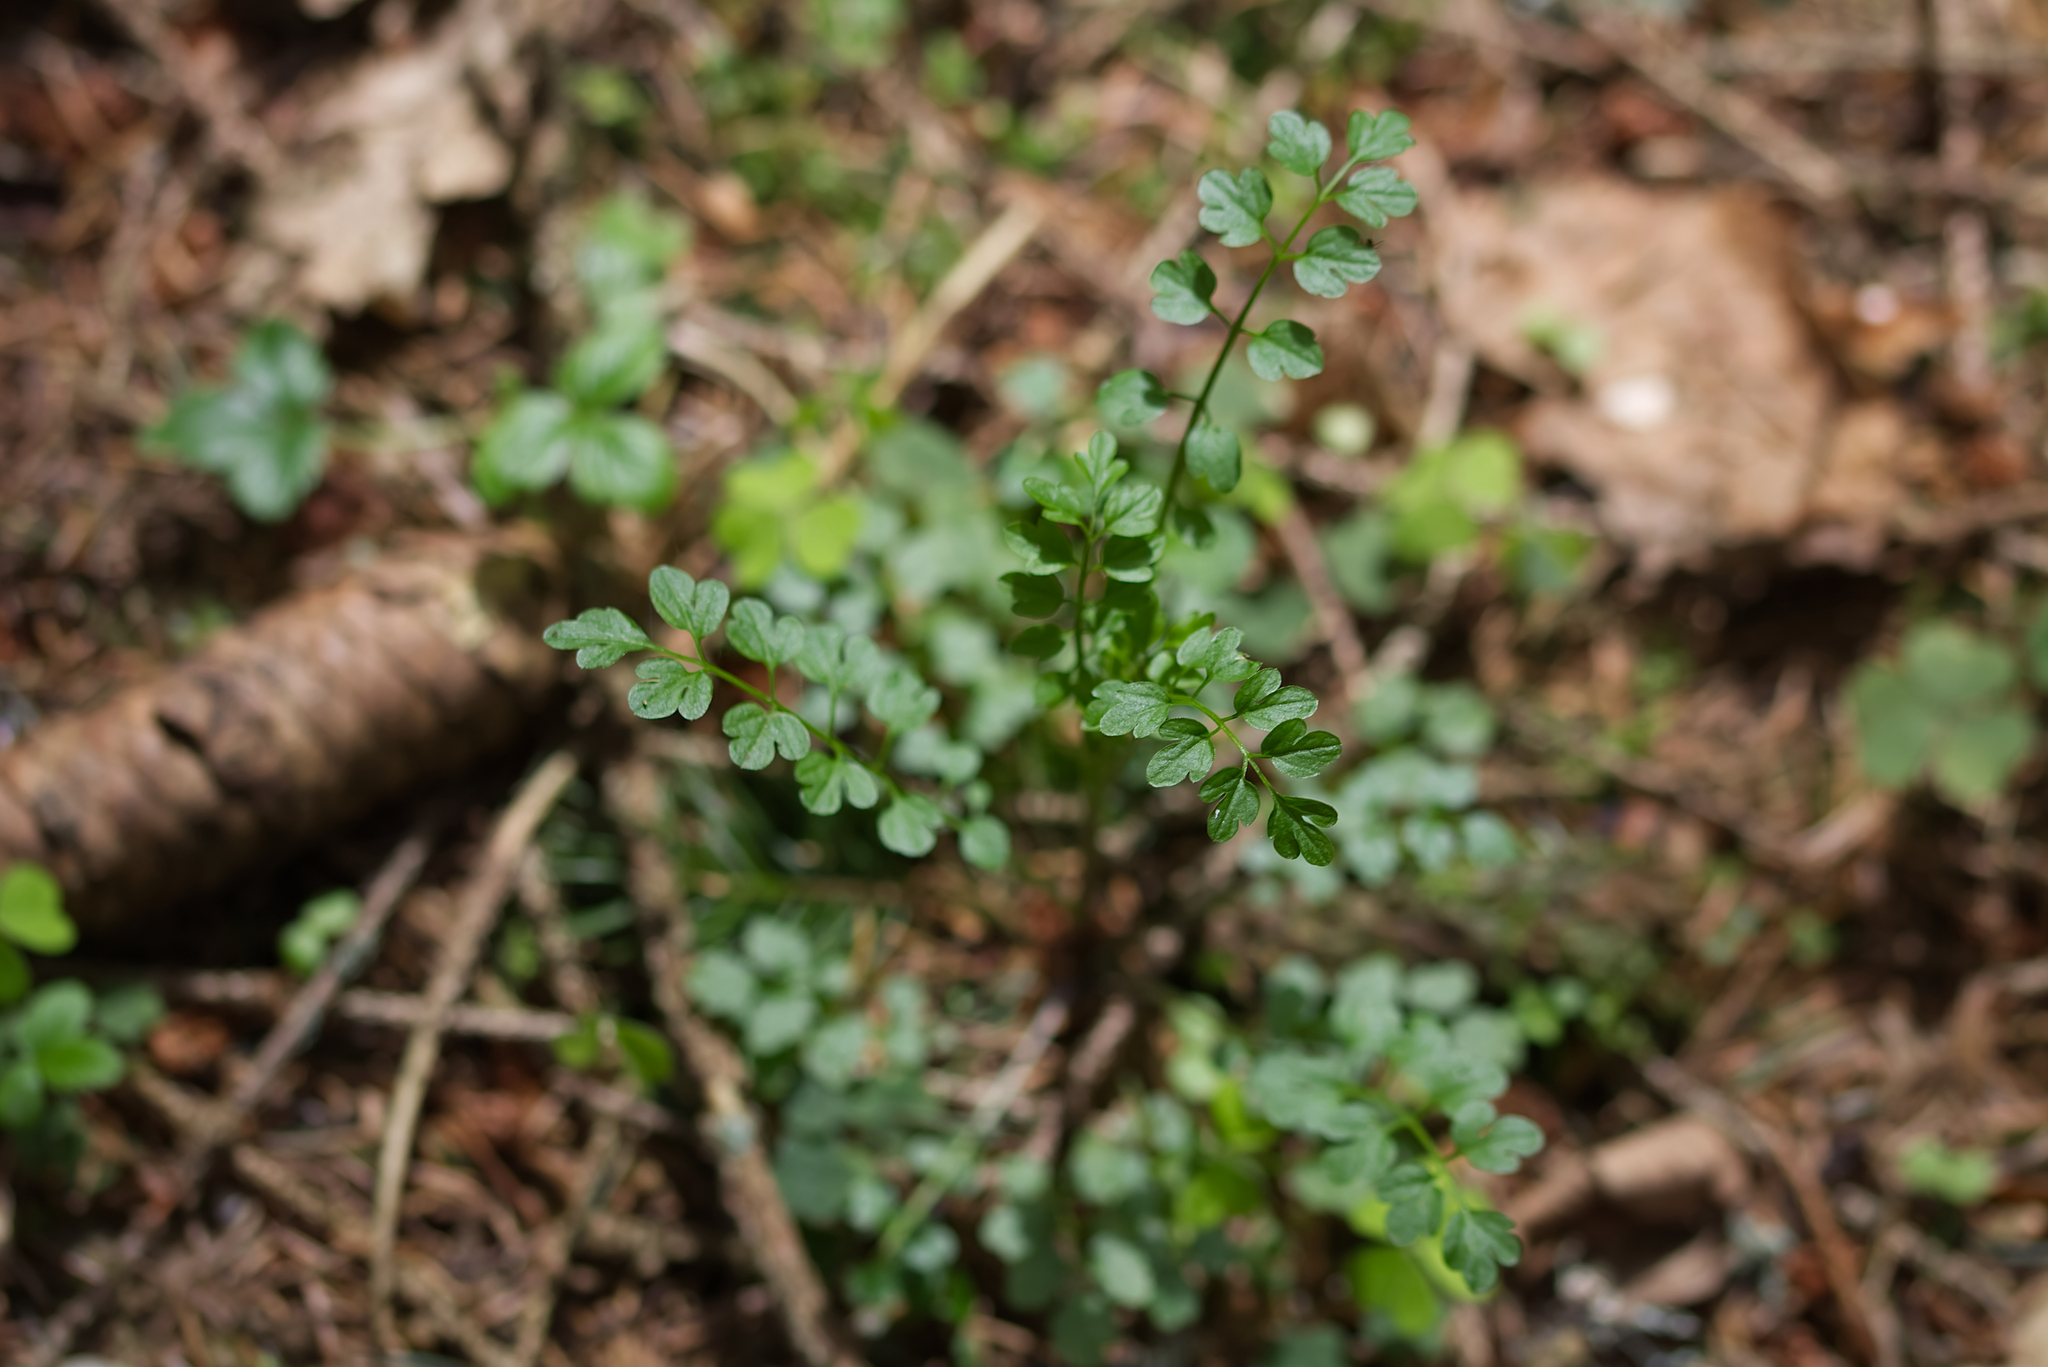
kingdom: Plantae
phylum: Tracheophyta
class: Magnoliopsida
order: Brassicales
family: Brassicaceae
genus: Cardamine
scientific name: Cardamine impatiens
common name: Narrow-leaved bitter-cress
